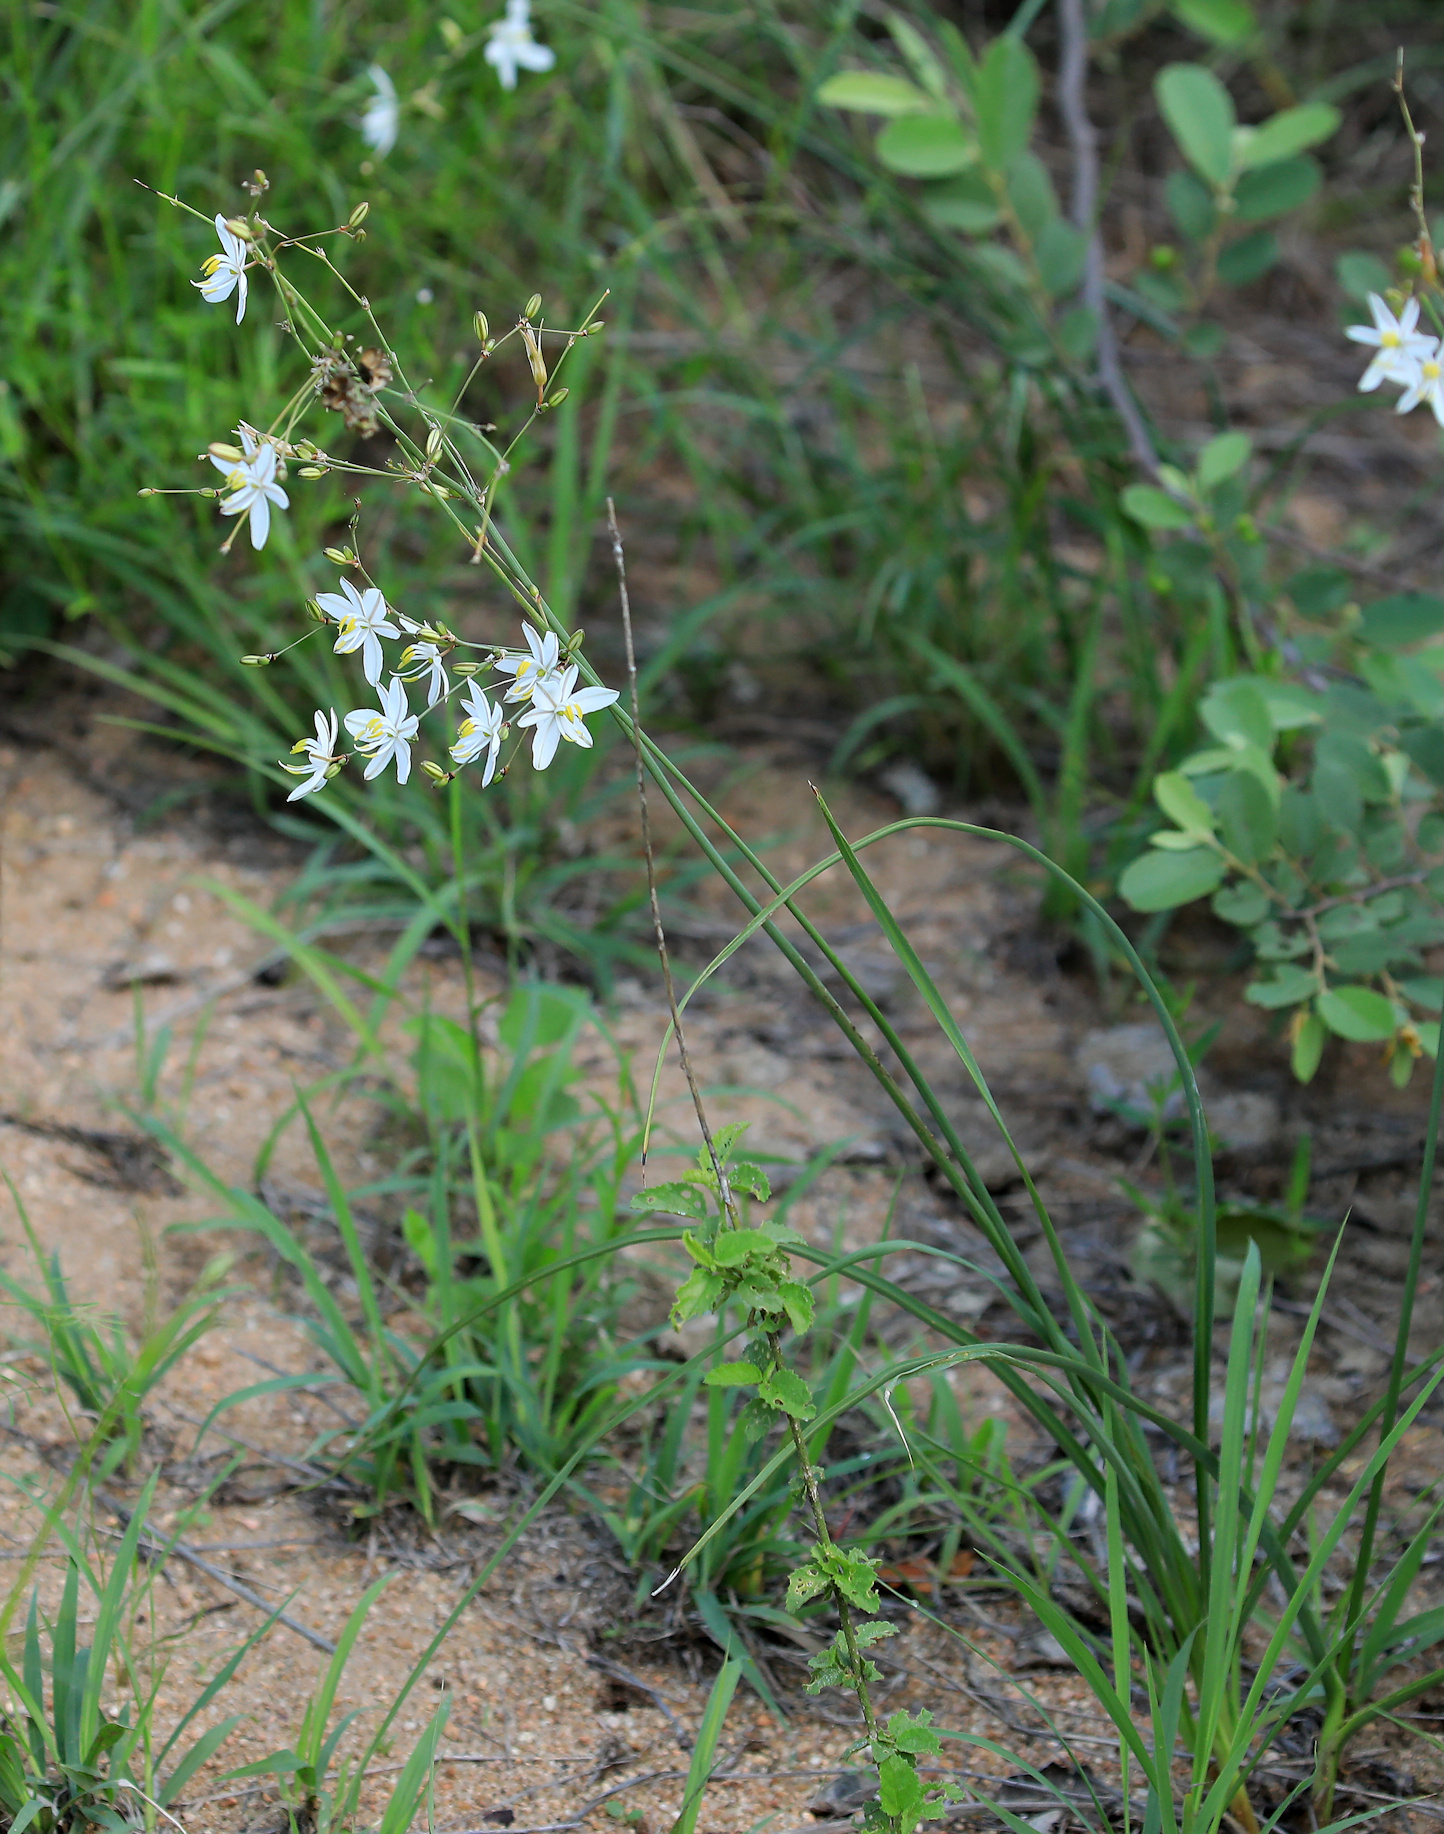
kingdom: Plantae
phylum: Tracheophyta
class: Liliopsida
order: Asparagales
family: Asparagaceae
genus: Chlorophytum
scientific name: Chlorophytum galpinii
